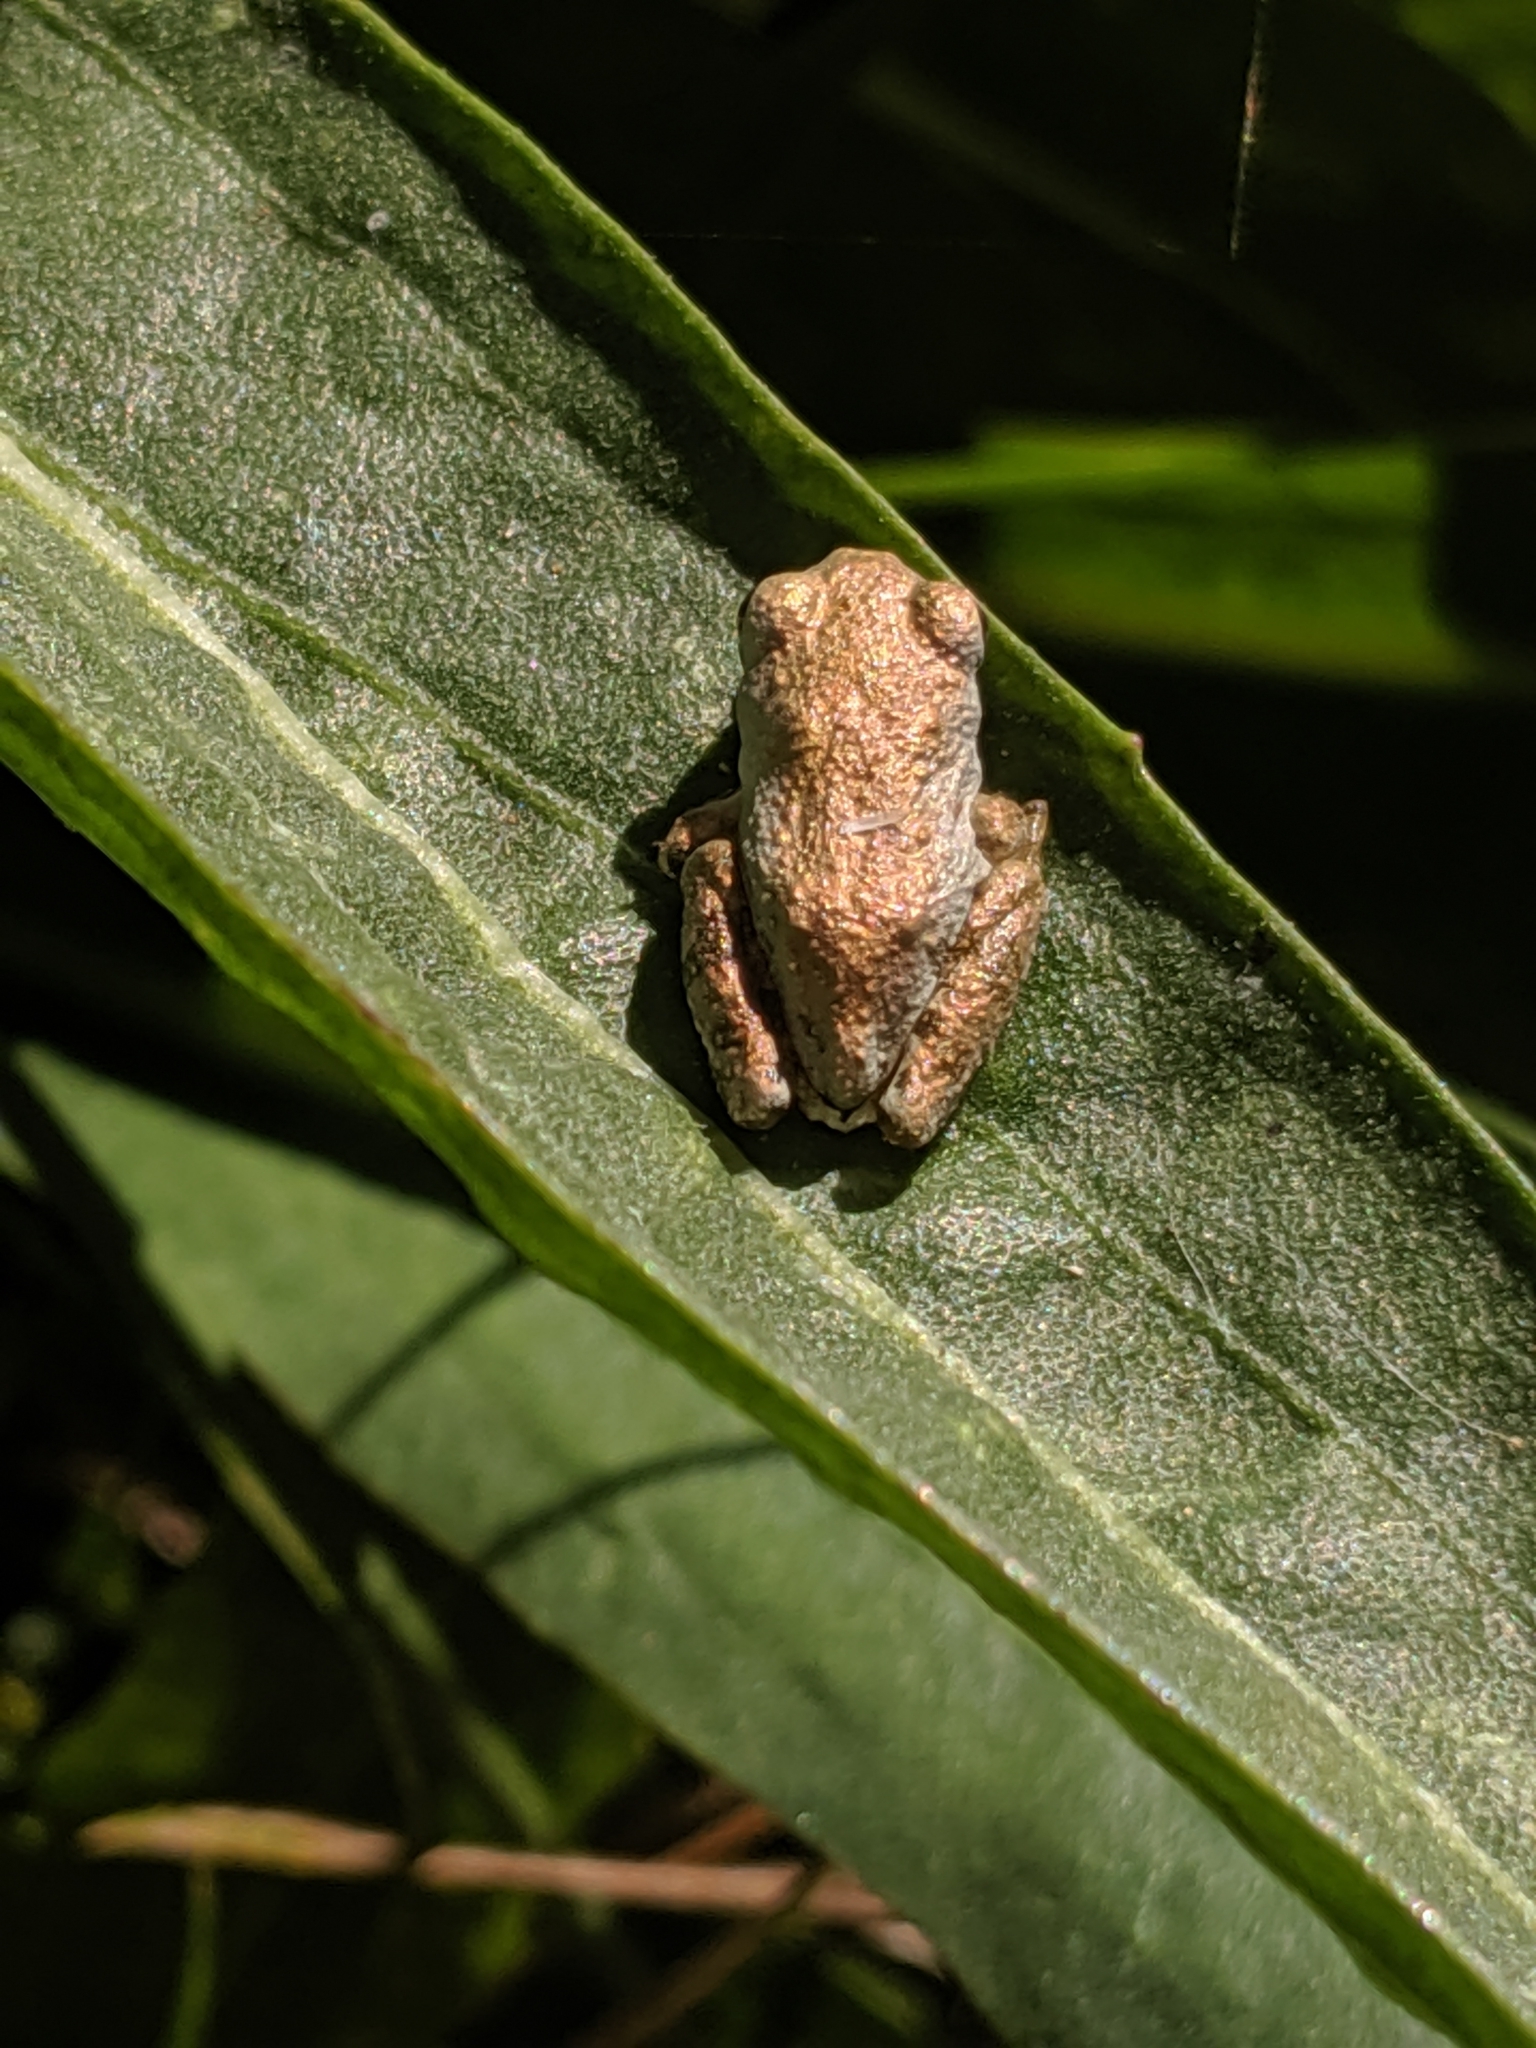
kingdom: Animalia
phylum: Chordata
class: Amphibia
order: Anura
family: Hylidae
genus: Pseudacris
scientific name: Pseudacris regilla
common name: Pacific chorus frog
